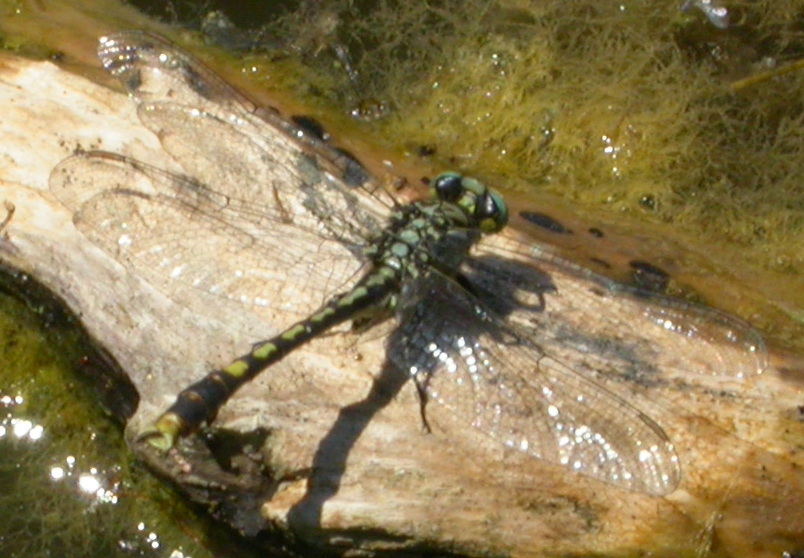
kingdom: Animalia
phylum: Arthropoda
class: Insecta
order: Odonata
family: Gomphidae
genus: Arigomphus
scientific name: Arigomphus villosipes
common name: Unicorn clubtail
